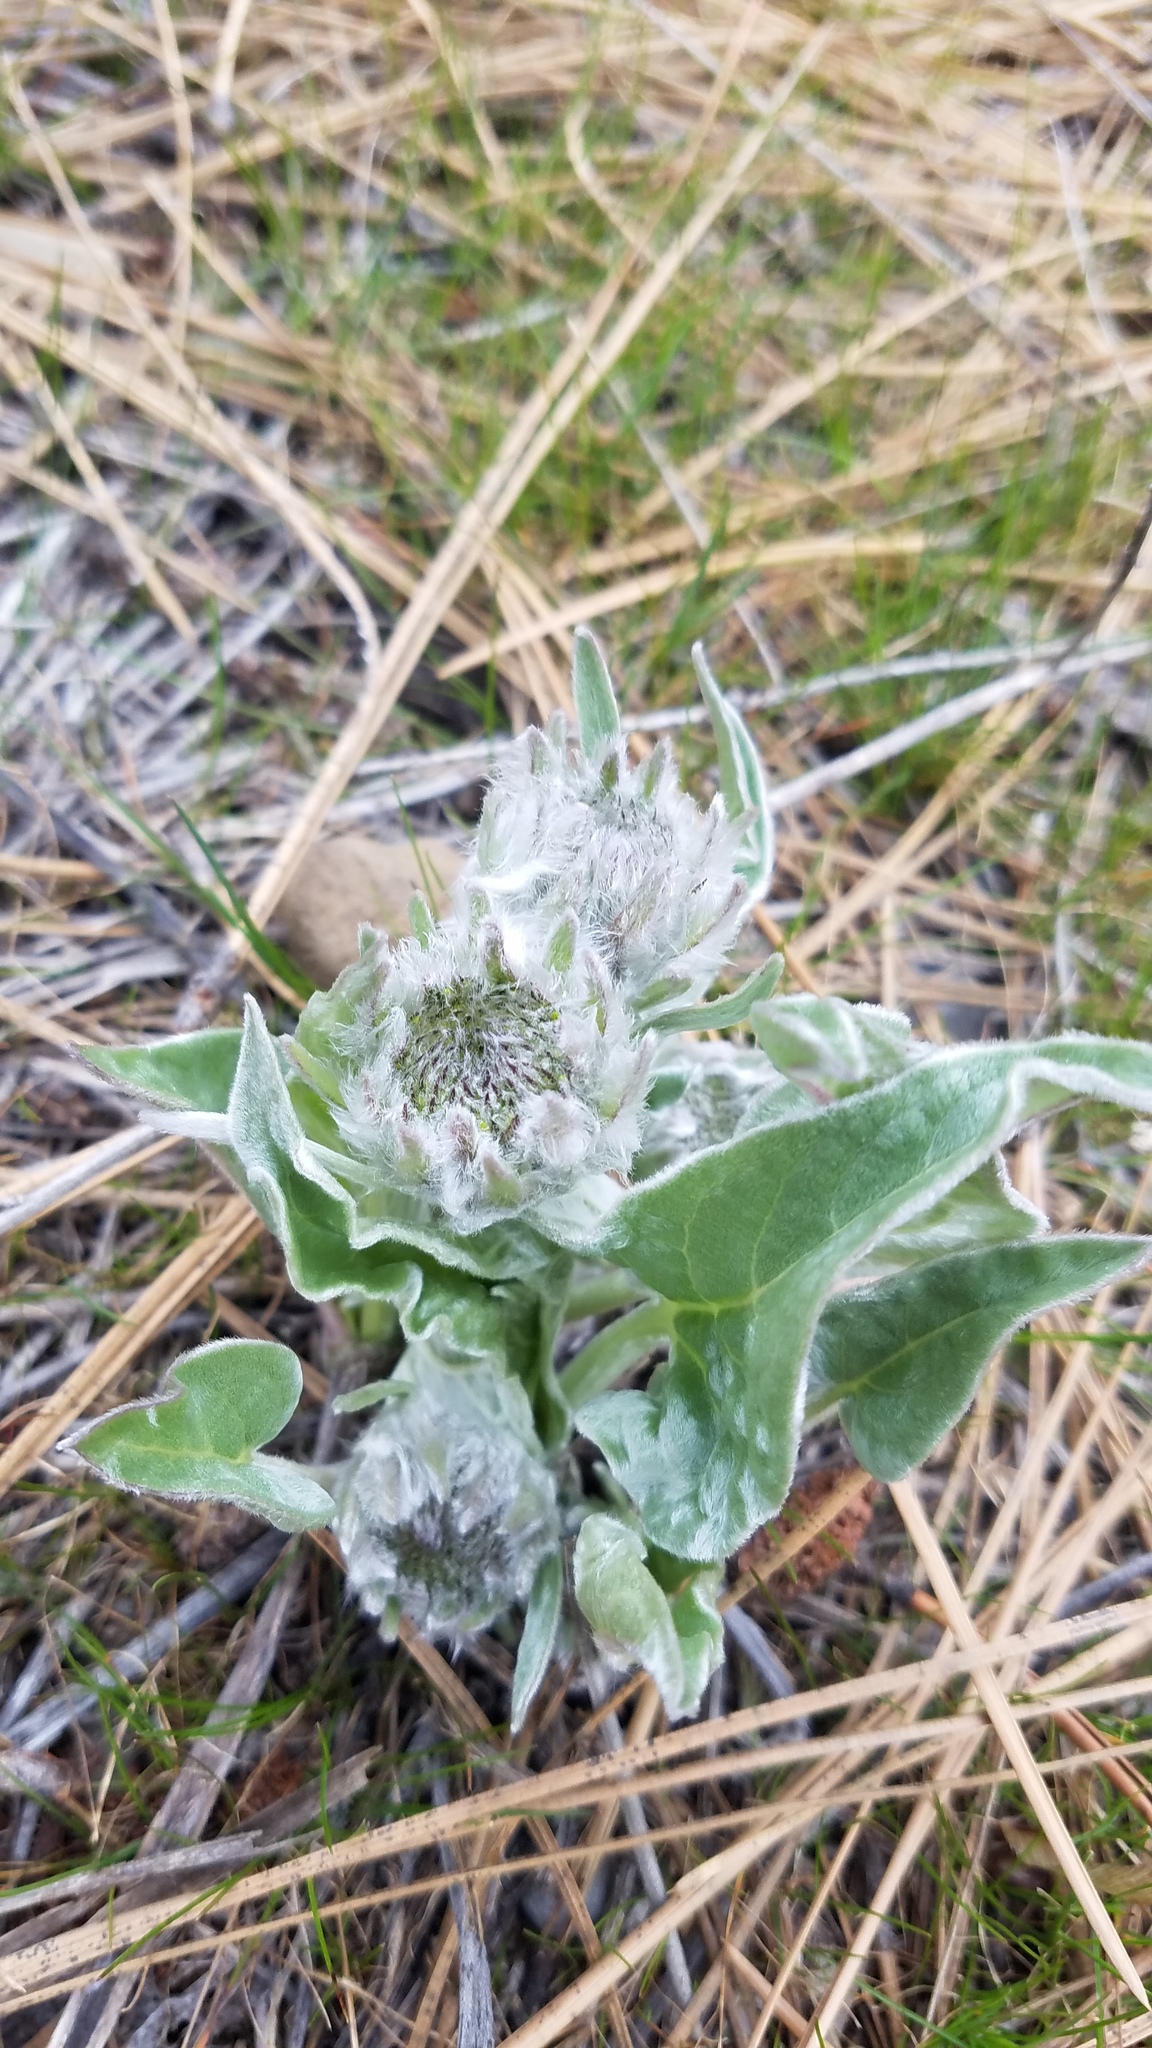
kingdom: Plantae
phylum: Tracheophyta
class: Magnoliopsida
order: Asterales
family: Asteraceae
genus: Wyethia
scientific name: Wyethia sagittata
